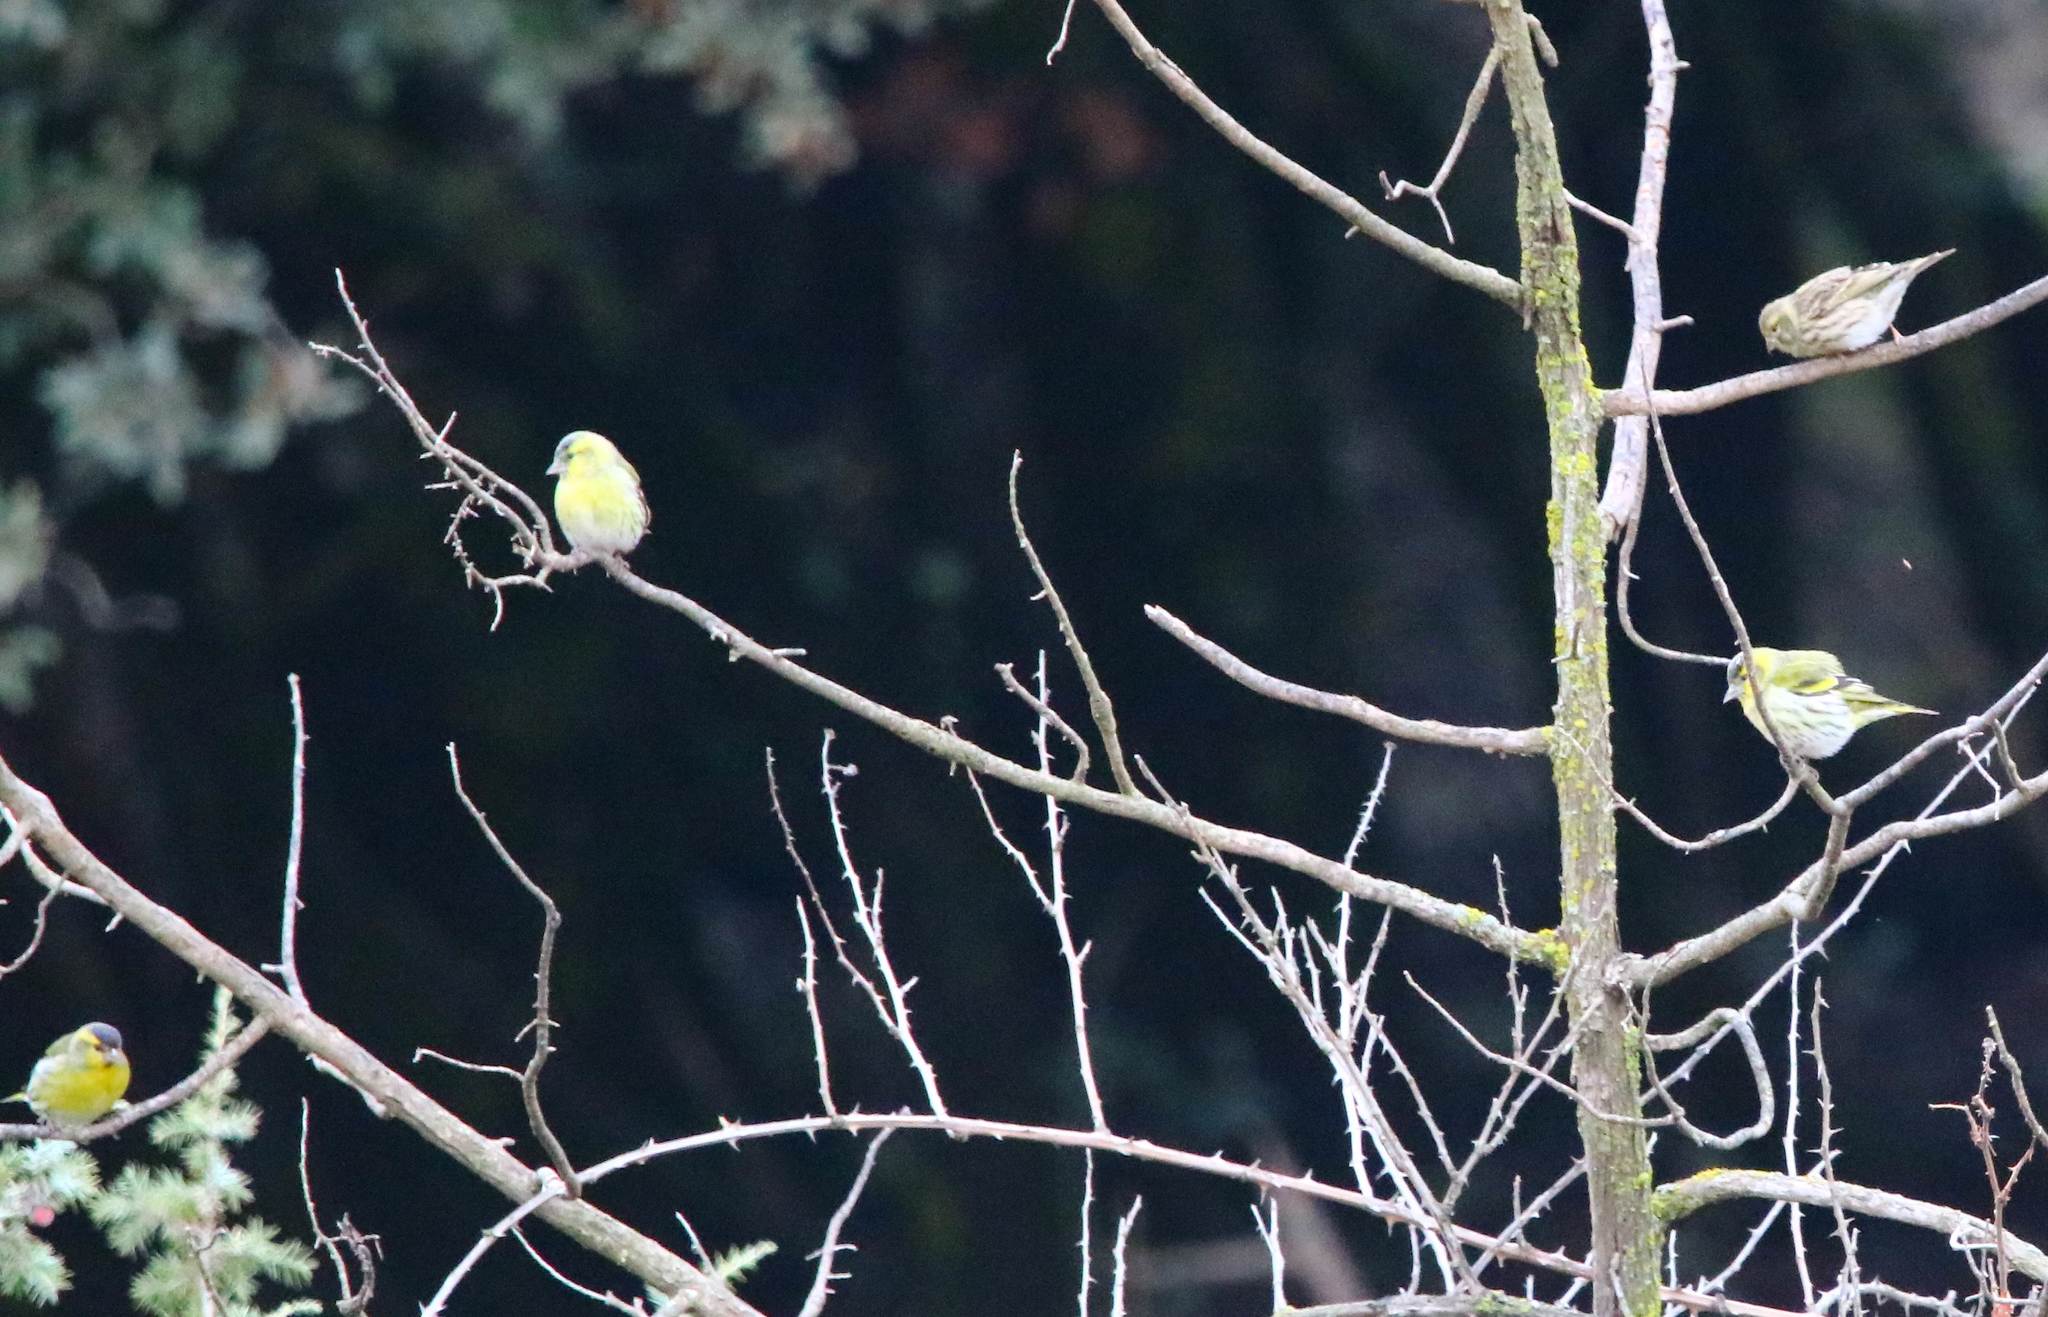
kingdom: Animalia
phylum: Chordata
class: Aves
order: Passeriformes
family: Fringillidae
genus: Spinus
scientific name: Spinus spinus
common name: Eurasian siskin
